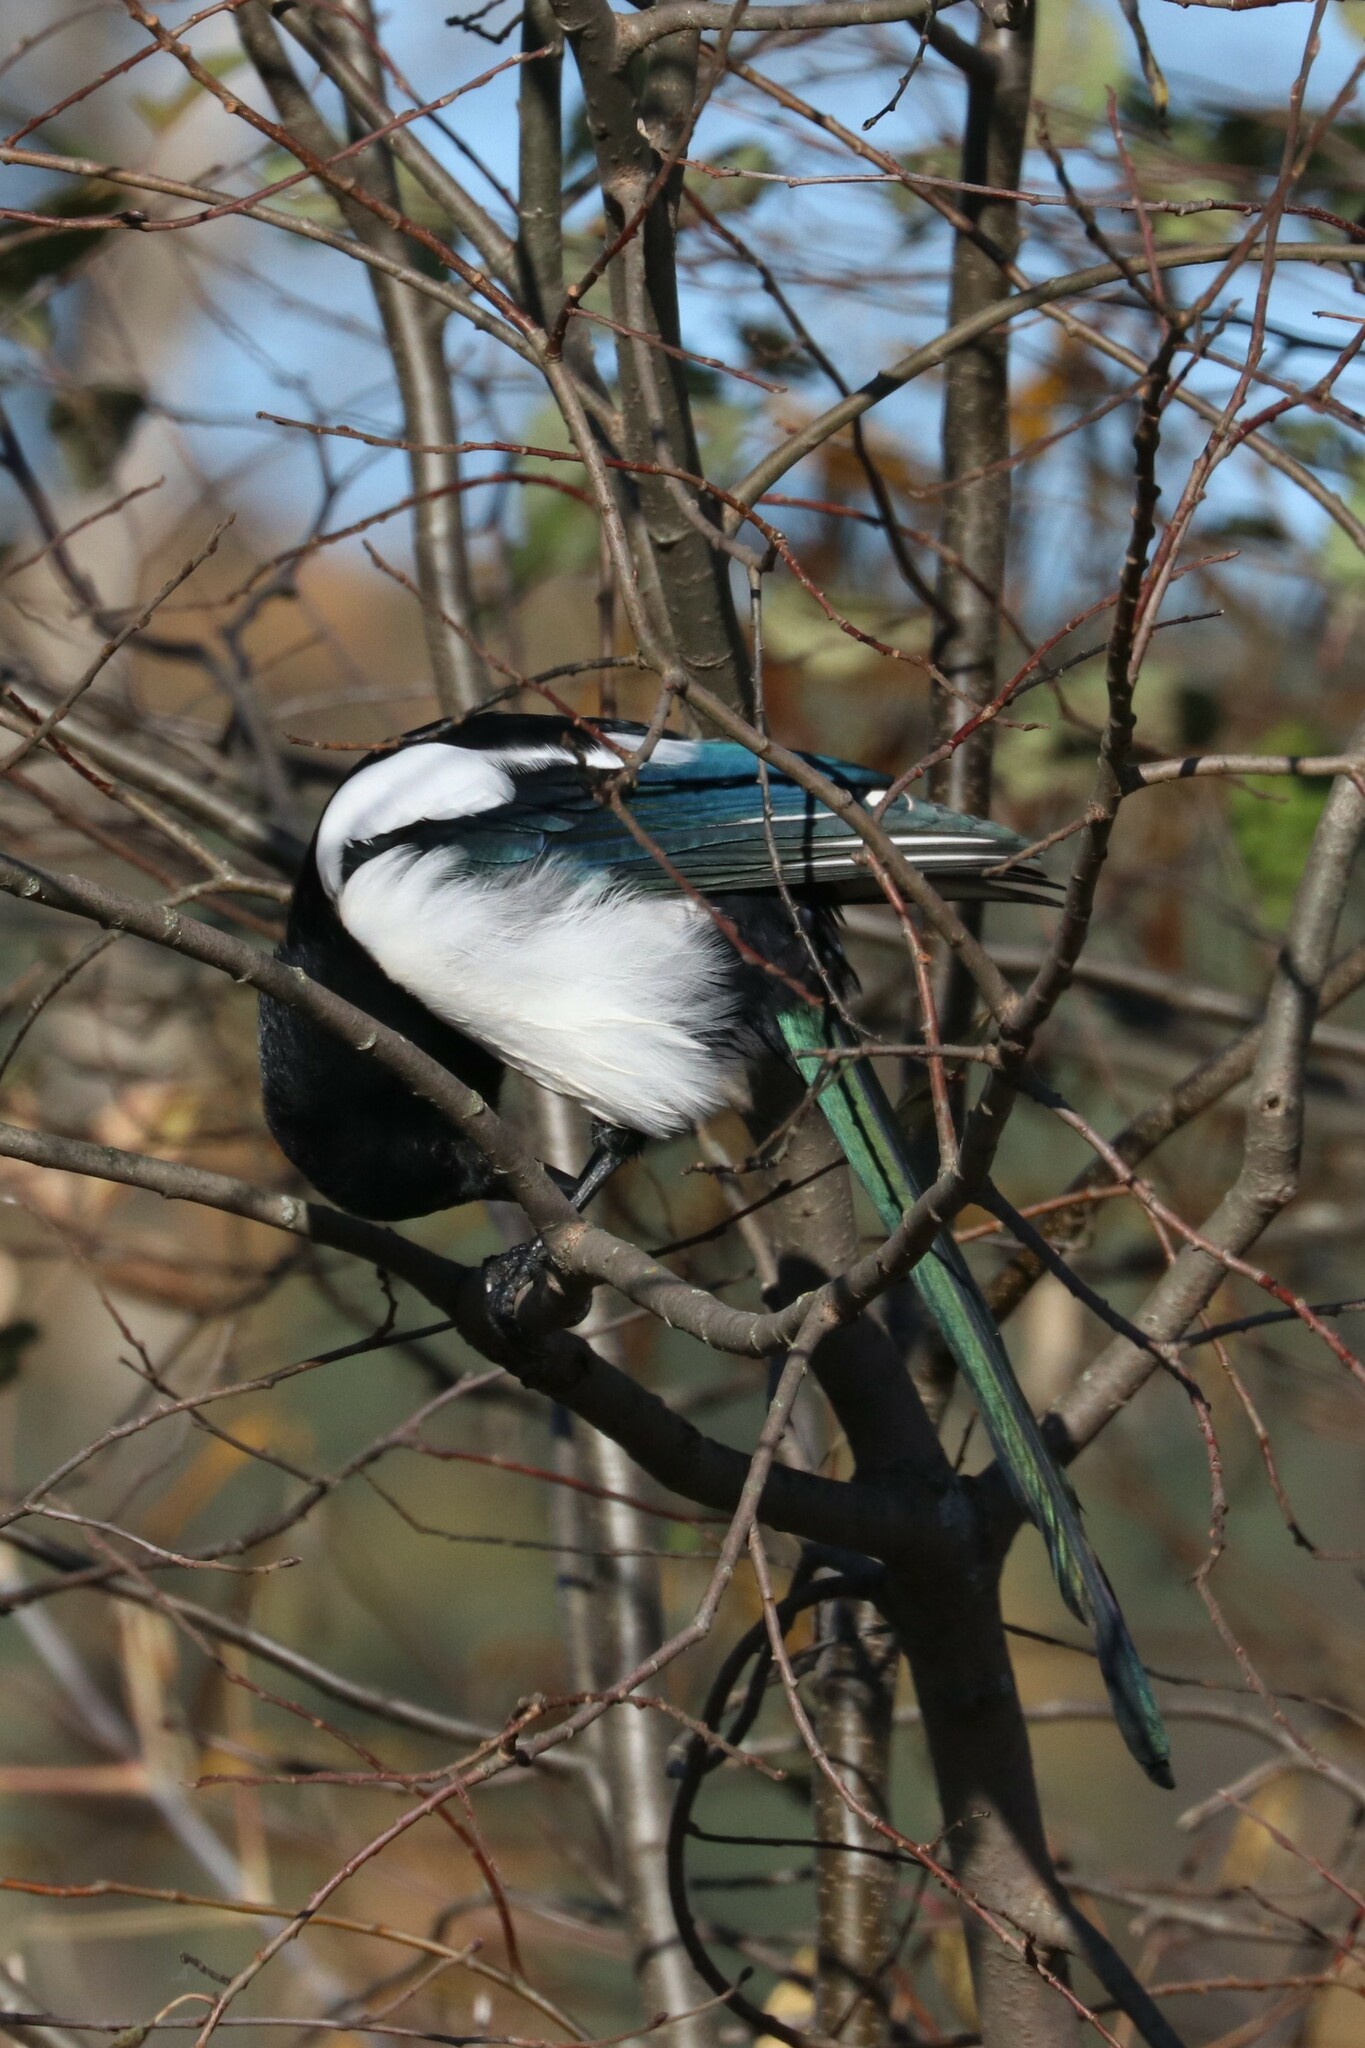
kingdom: Animalia
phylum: Chordata
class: Aves
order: Passeriformes
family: Corvidae
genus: Pica
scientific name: Pica pica
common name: Eurasian magpie
